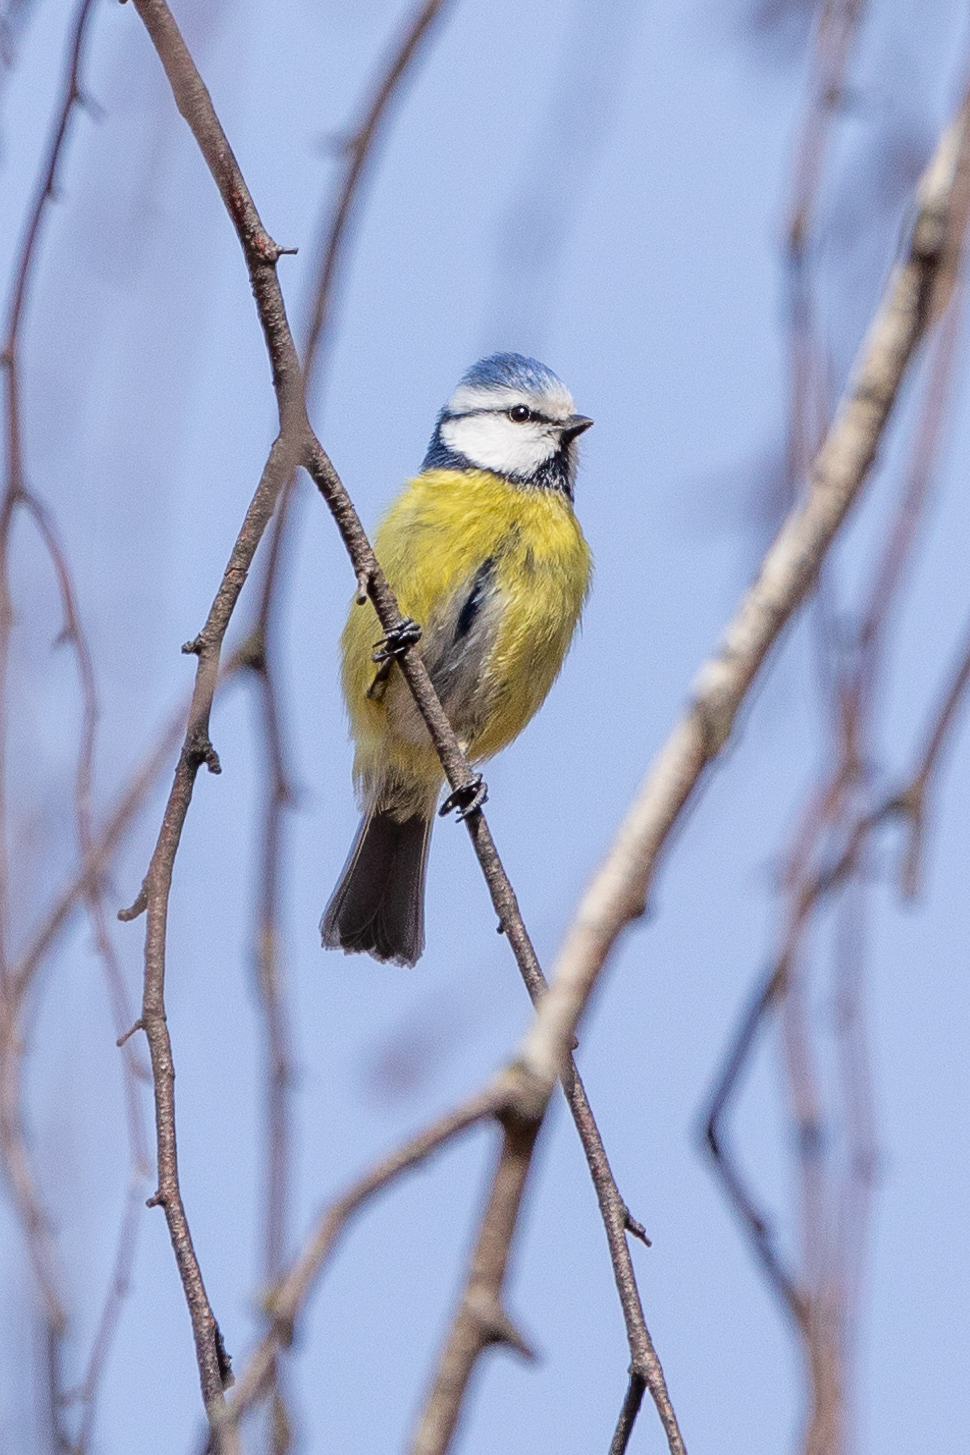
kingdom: Animalia
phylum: Chordata
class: Aves
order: Passeriformes
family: Paridae
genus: Cyanistes
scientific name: Cyanistes caeruleus
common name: Eurasian blue tit
